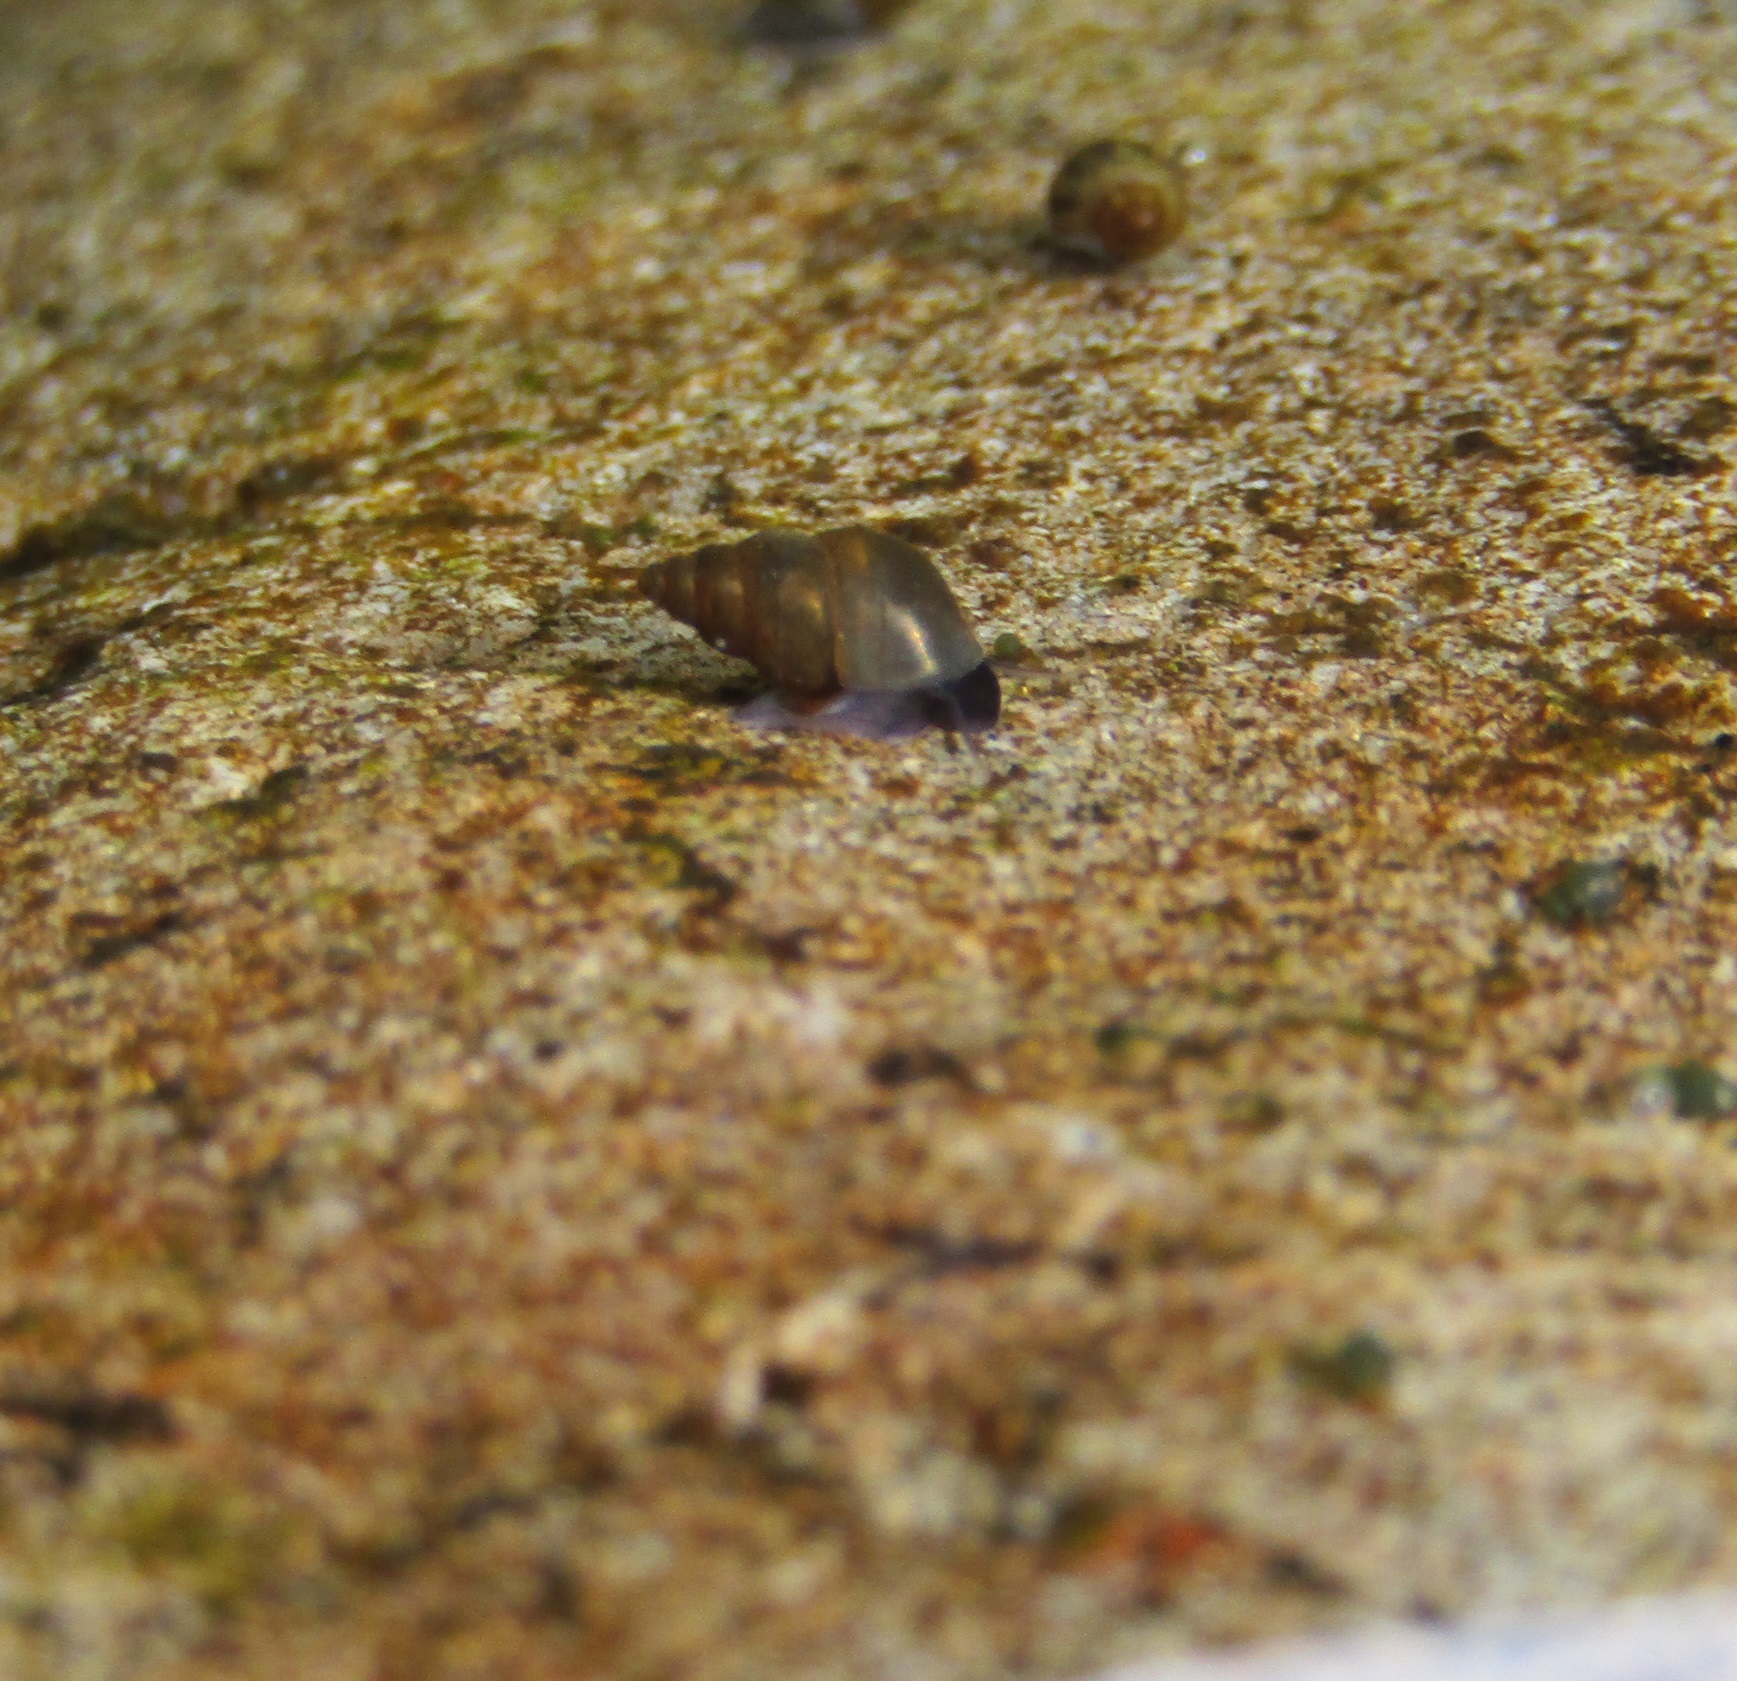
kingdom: Animalia
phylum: Mollusca
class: Gastropoda
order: Littorinimorpha
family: Tateidae
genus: Potamopyrgus
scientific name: Potamopyrgus antipodarum
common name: Jenkins' spire snail
